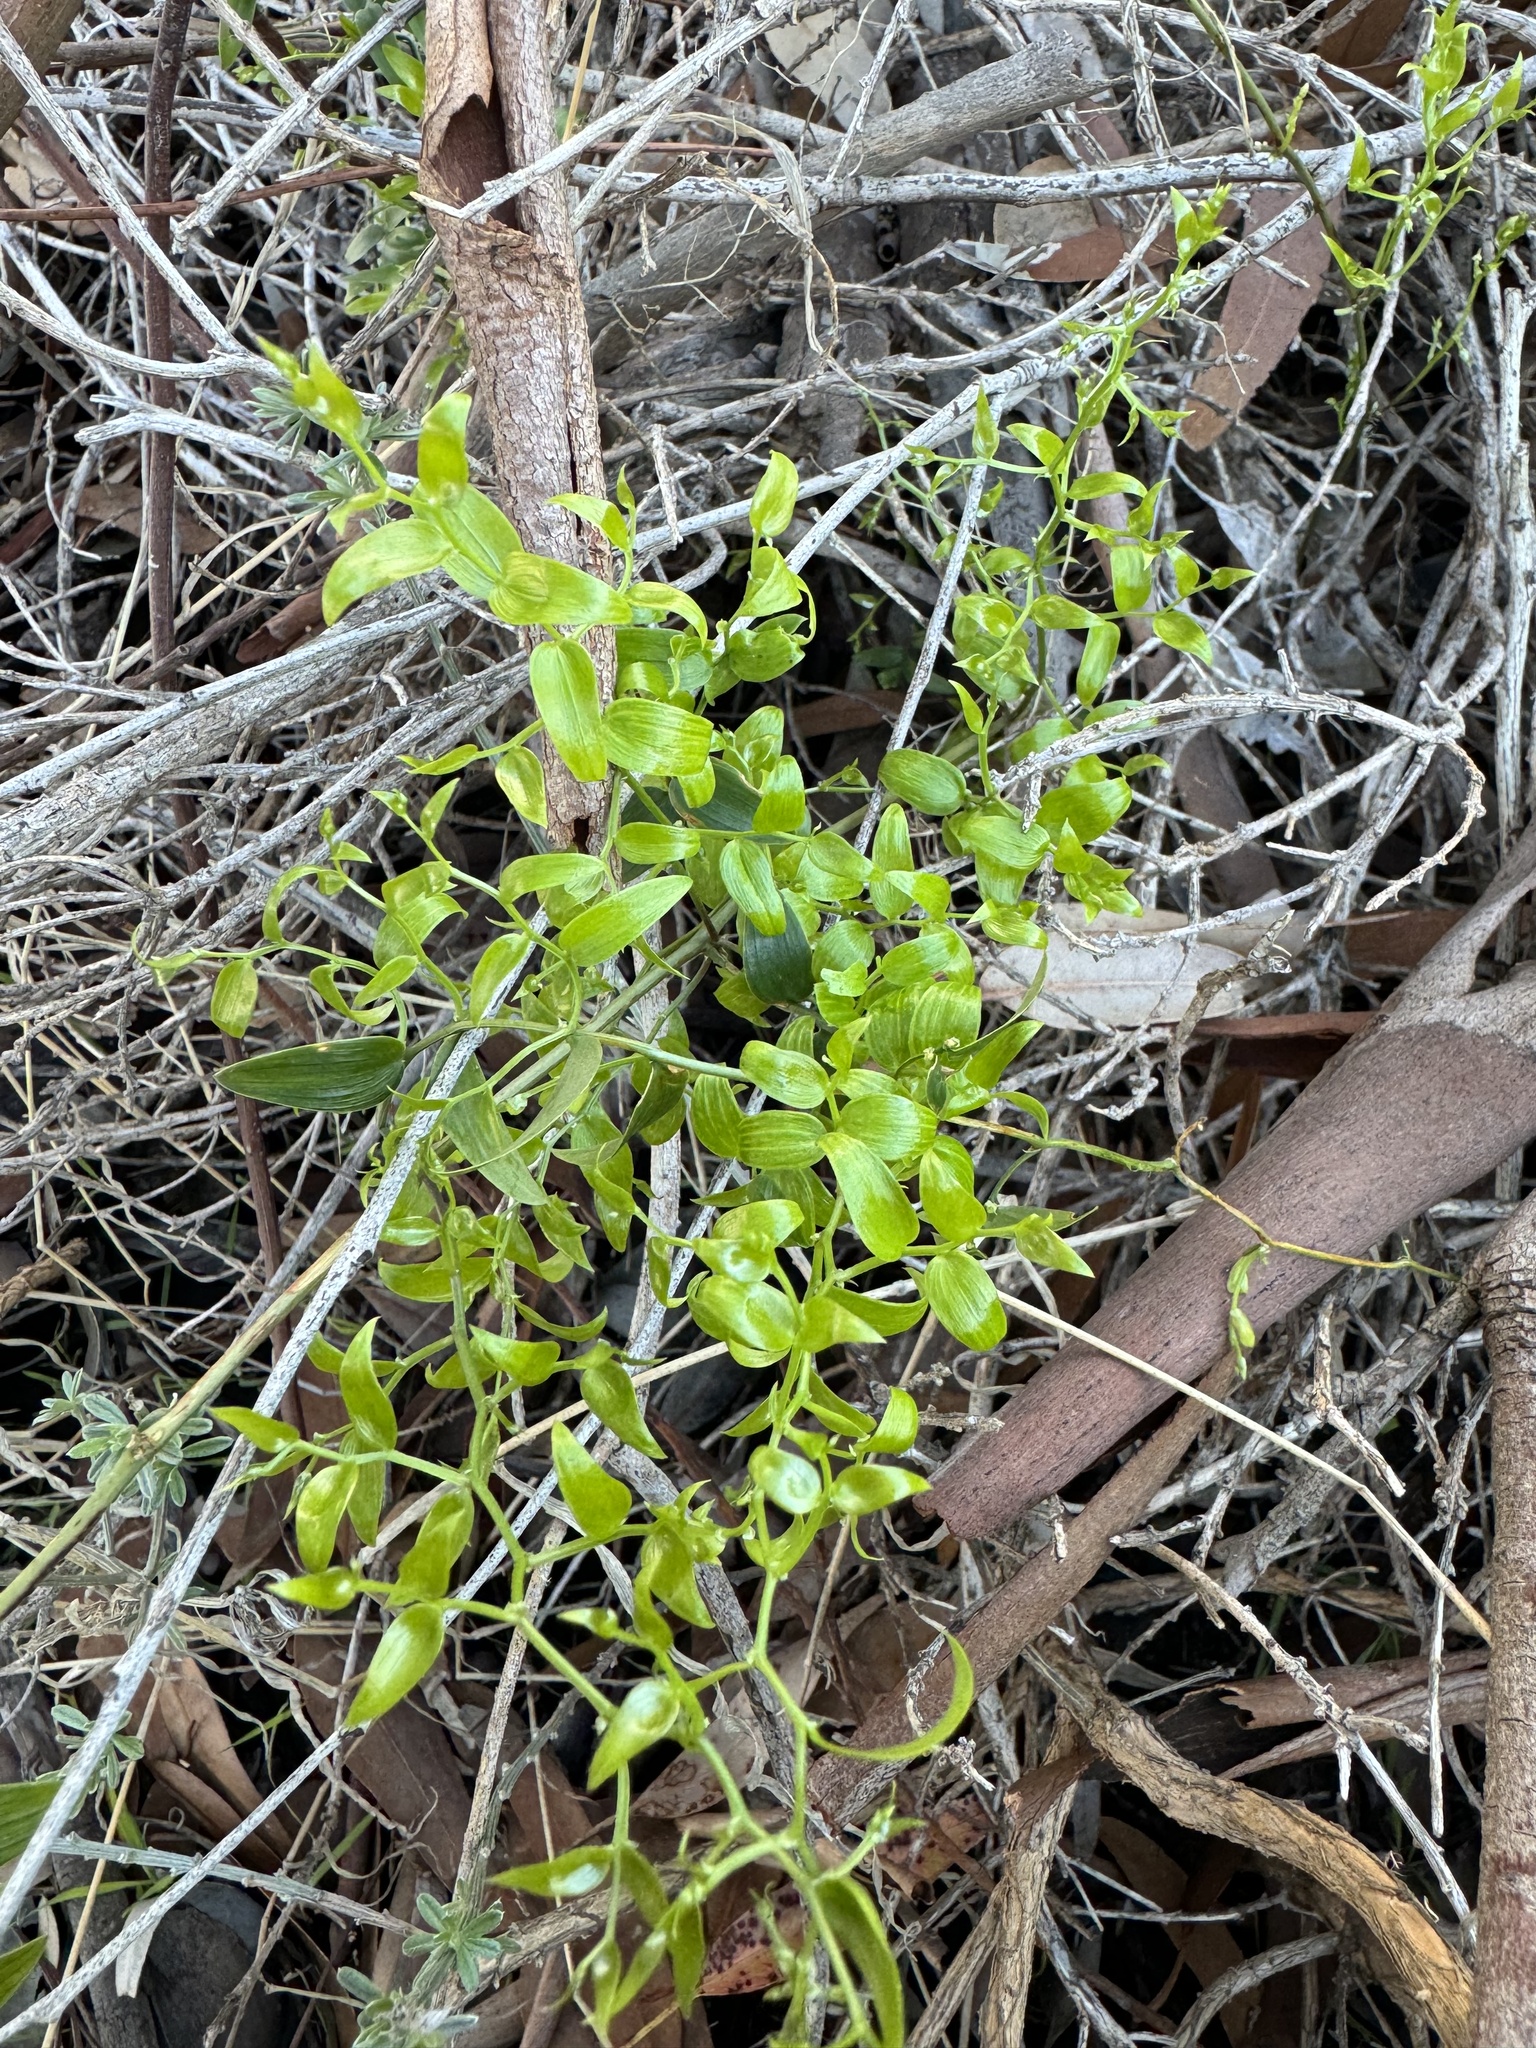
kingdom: Plantae
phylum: Tracheophyta
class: Liliopsida
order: Asparagales
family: Asparagaceae
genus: Asparagus
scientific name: Asparagus asparagoides
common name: African asparagus fern
